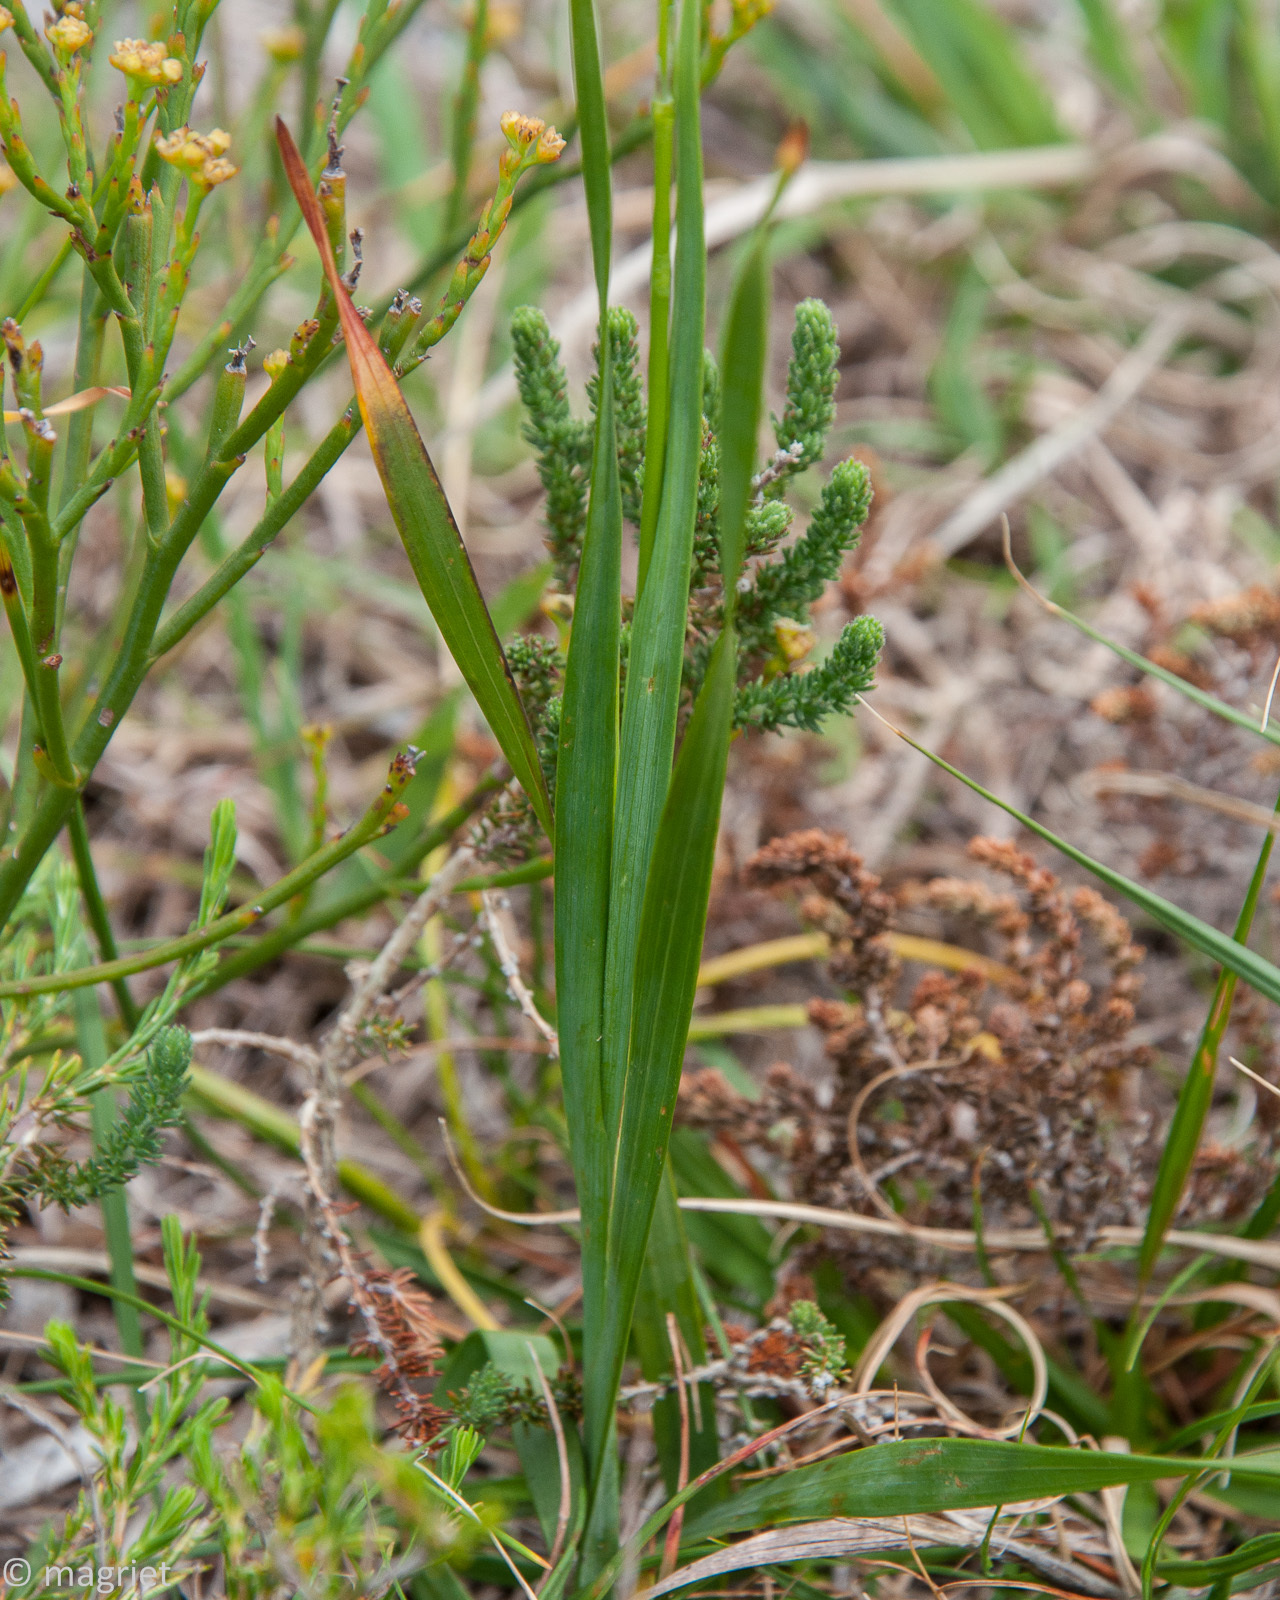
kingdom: Plantae
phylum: Tracheophyta
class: Liliopsida
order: Asparagales
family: Iridaceae
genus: Ixia
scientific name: Ixia dubia
